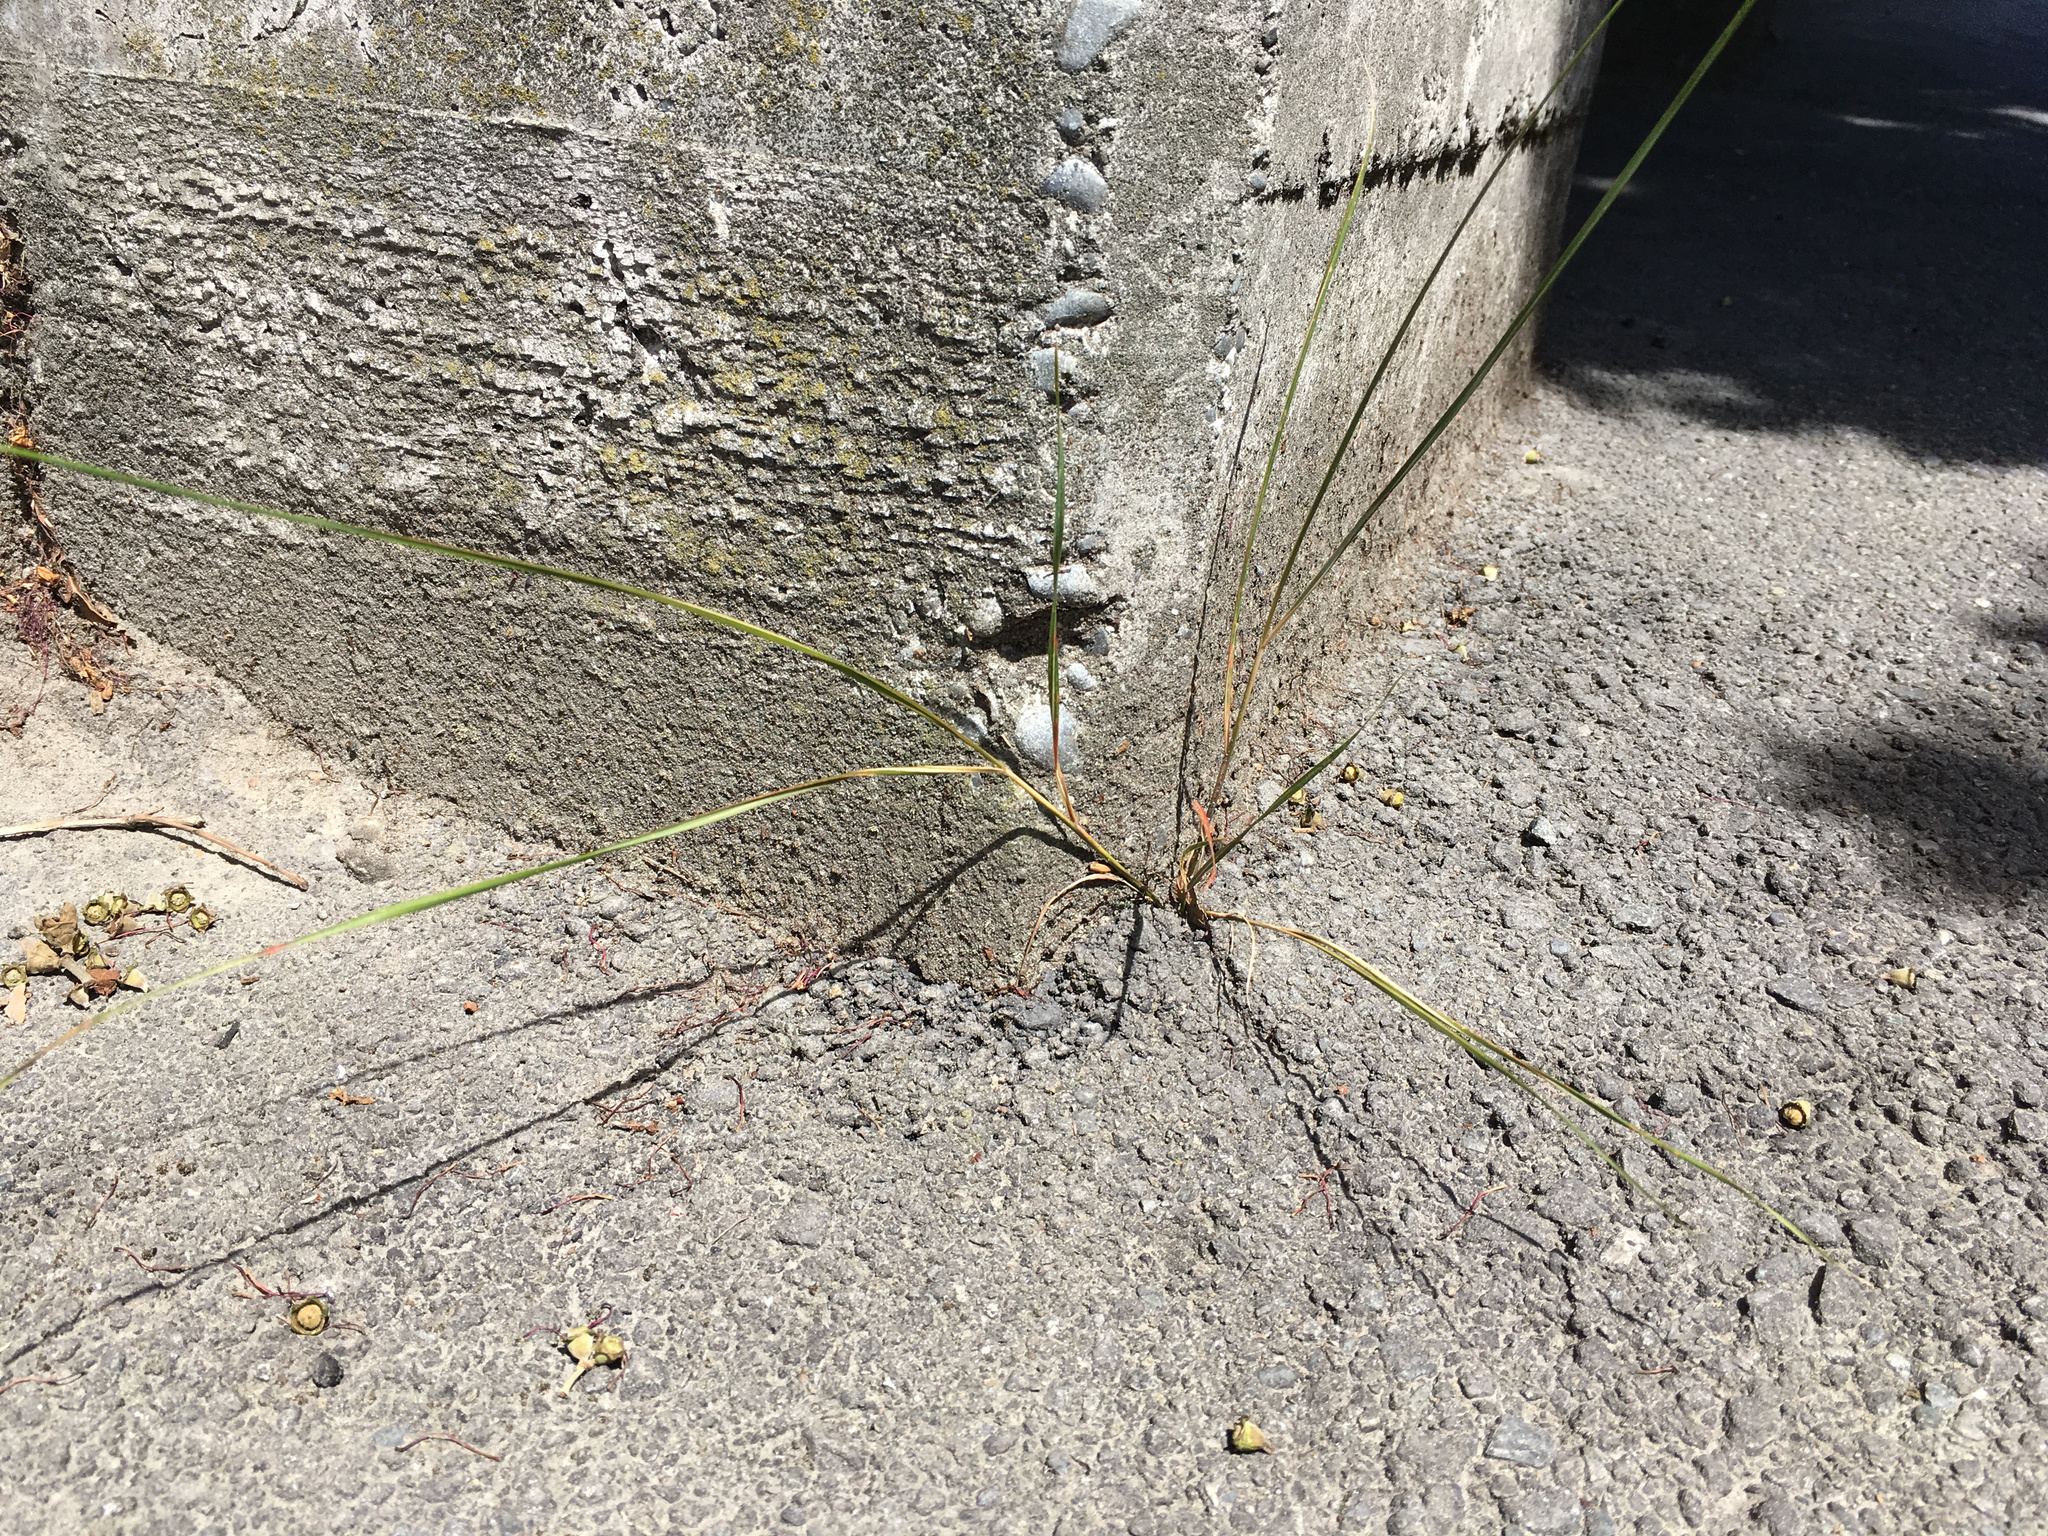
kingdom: Plantae
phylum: Tracheophyta
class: Liliopsida
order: Poales
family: Poaceae
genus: Anemanthele
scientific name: Anemanthele lessoniana
